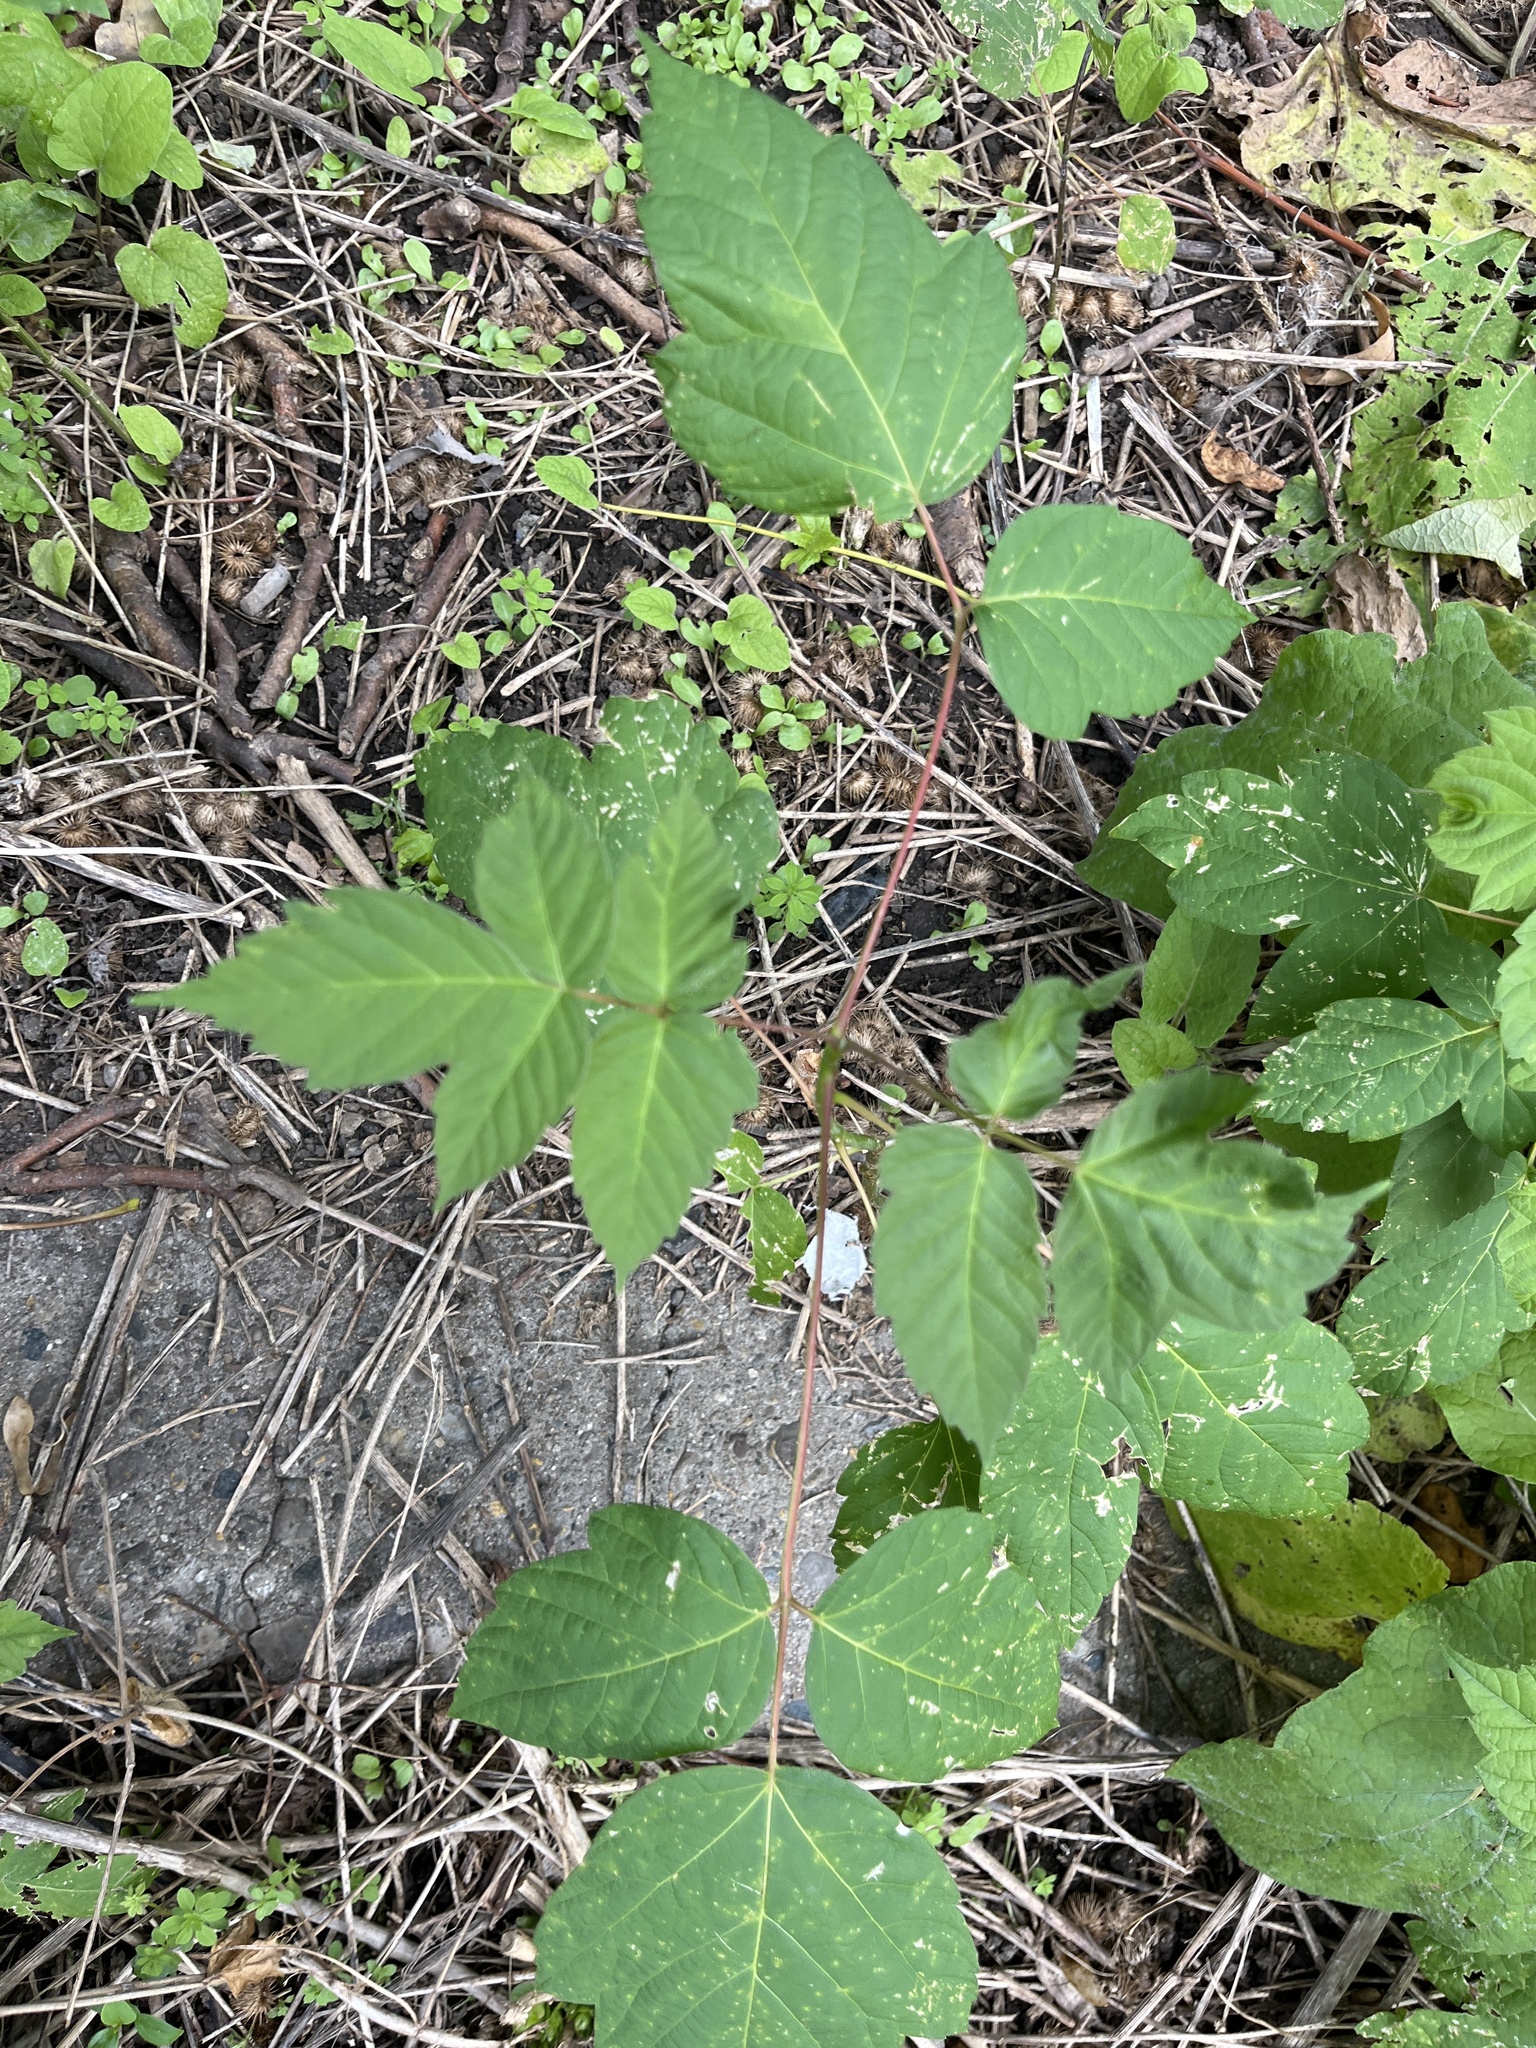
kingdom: Plantae
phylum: Tracheophyta
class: Magnoliopsida
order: Sapindales
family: Sapindaceae
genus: Acer
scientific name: Acer negundo
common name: Ashleaf maple
